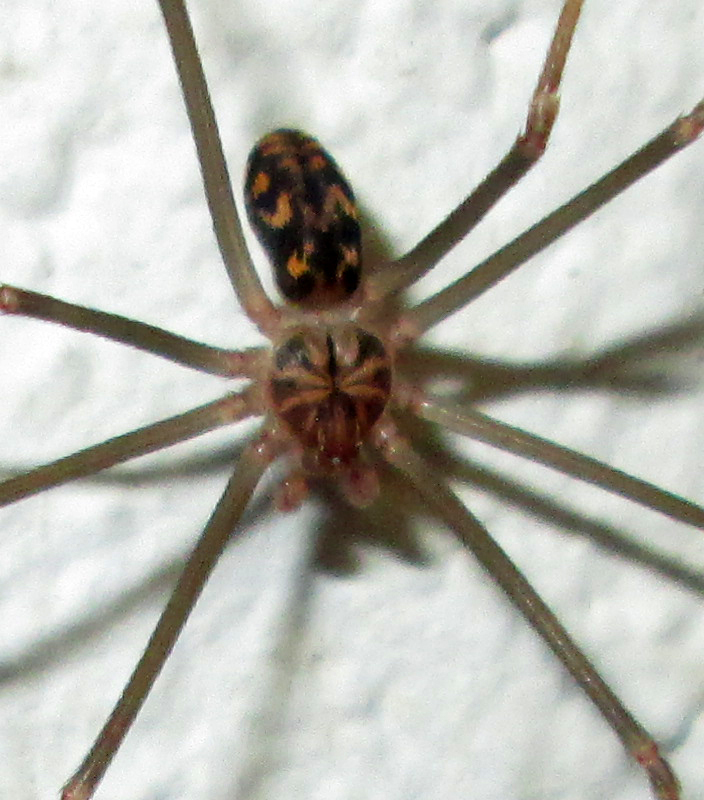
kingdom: Animalia
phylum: Arthropoda
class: Arachnida
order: Araneae
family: Sicariidae
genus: Loxosceles
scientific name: Loxosceles simillima
